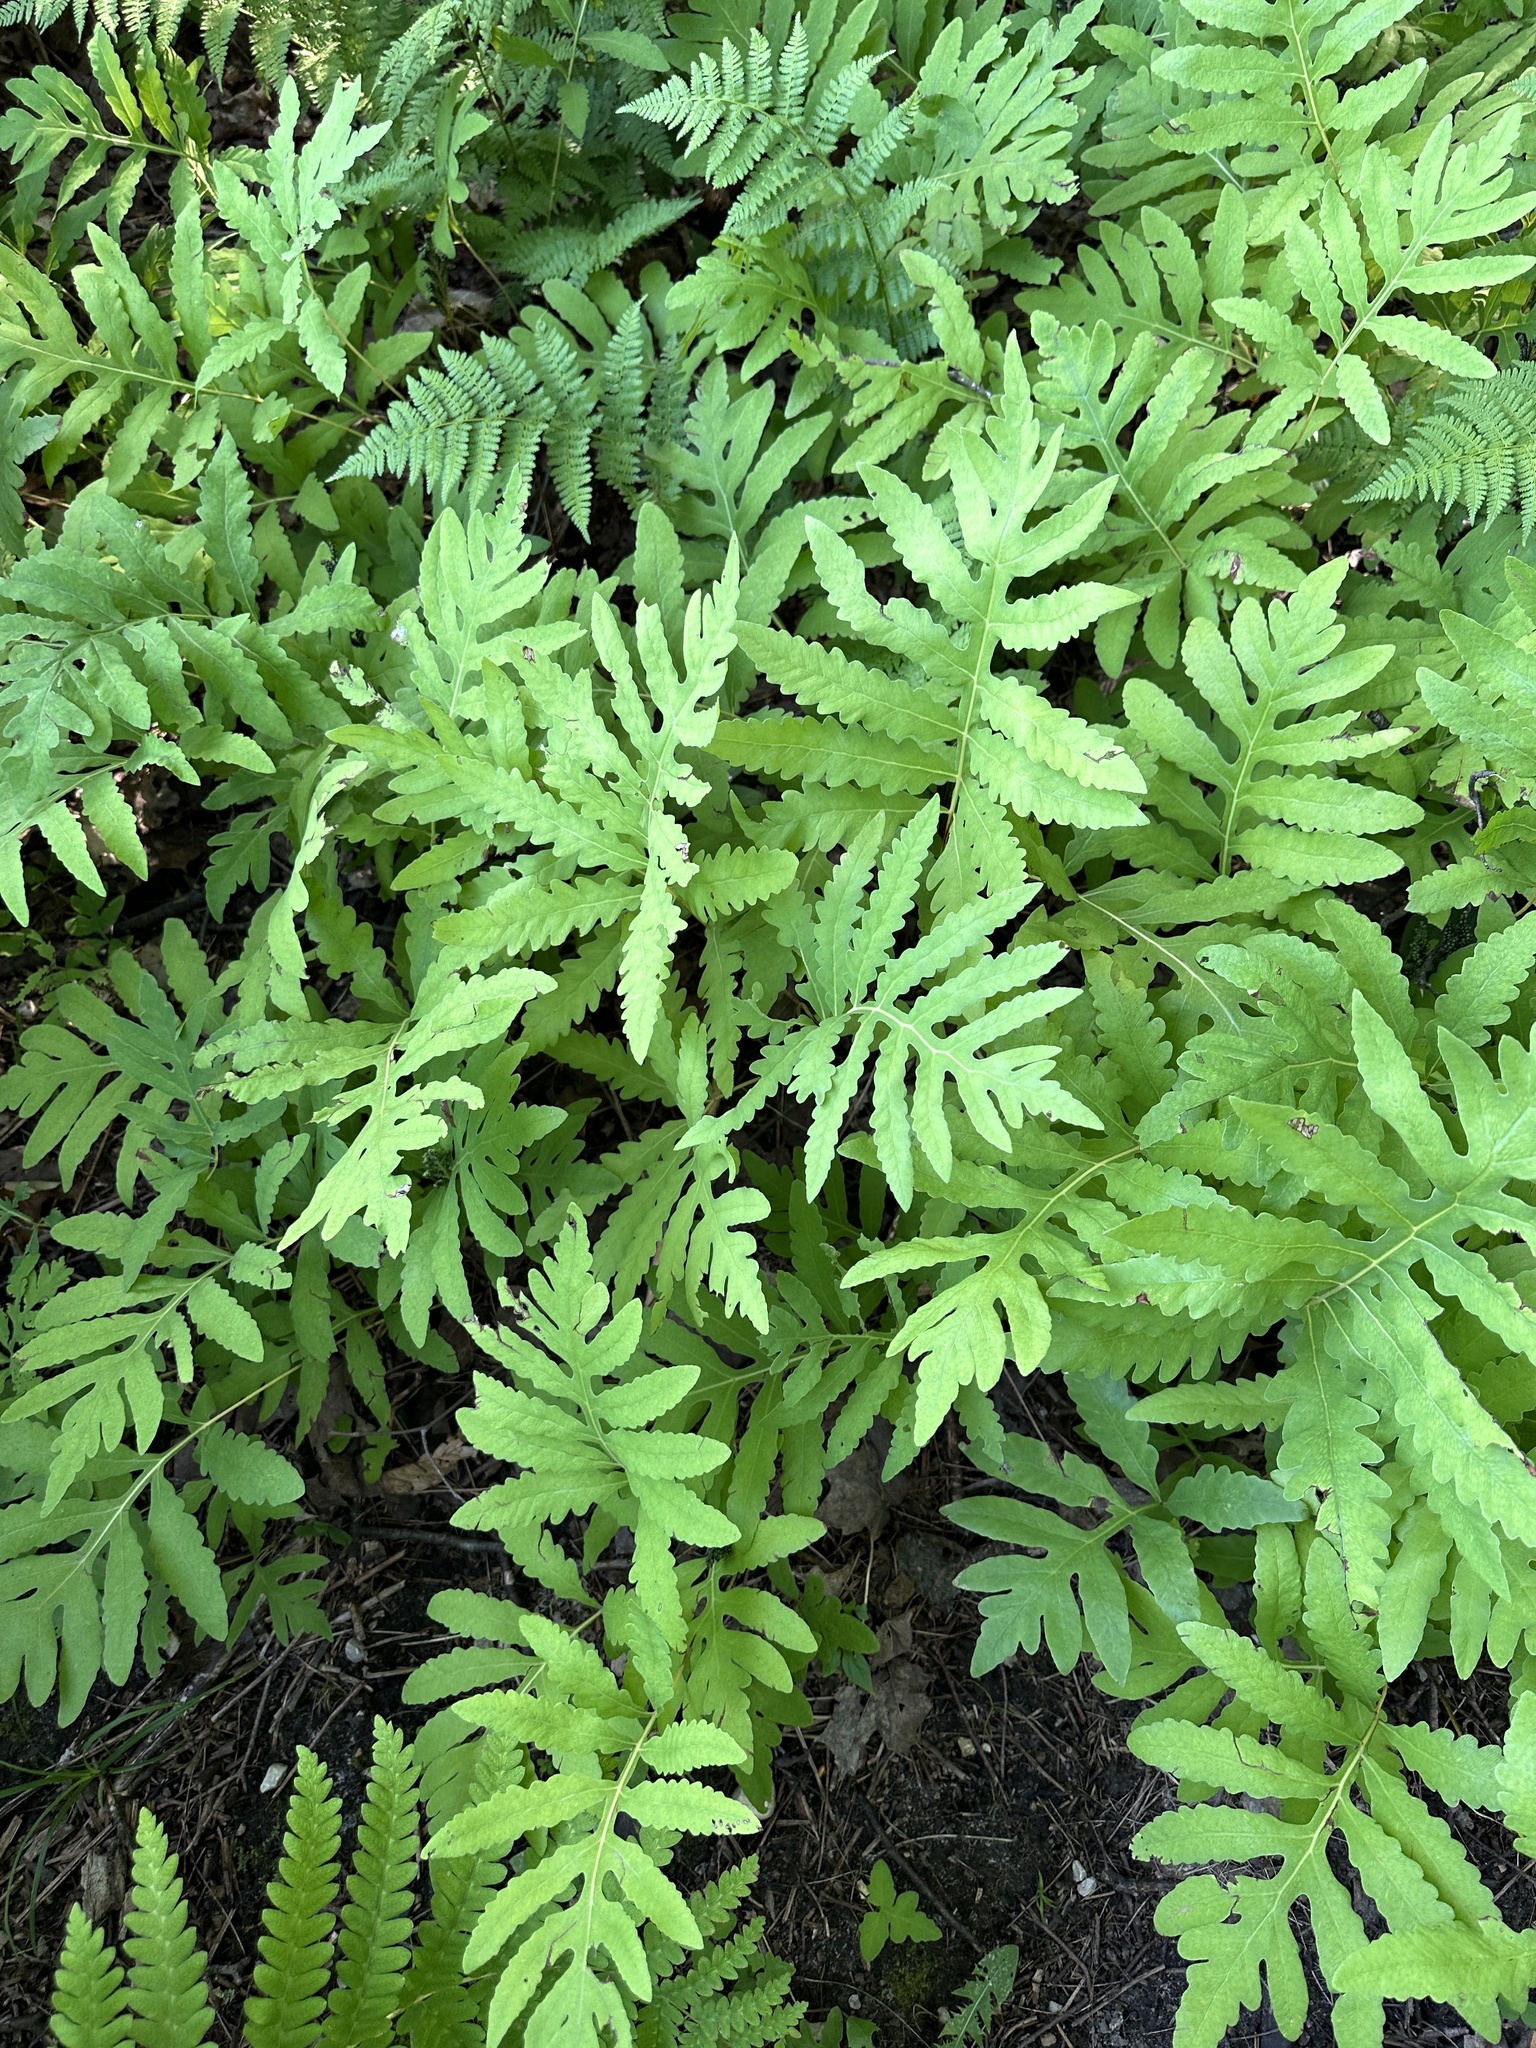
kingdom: Plantae
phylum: Tracheophyta
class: Polypodiopsida
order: Polypodiales
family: Onocleaceae
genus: Onoclea
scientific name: Onoclea sensibilis
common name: Sensitive fern
